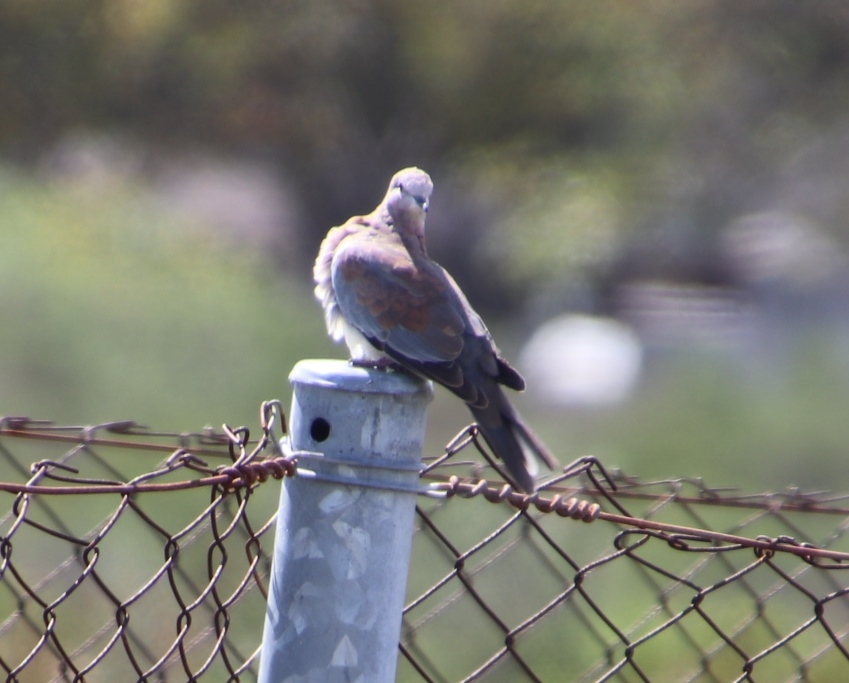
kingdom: Animalia
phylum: Chordata
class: Aves
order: Columbiformes
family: Columbidae
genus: Spilopelia
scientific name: Spilopelia senegalensis
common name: Laughing dove
